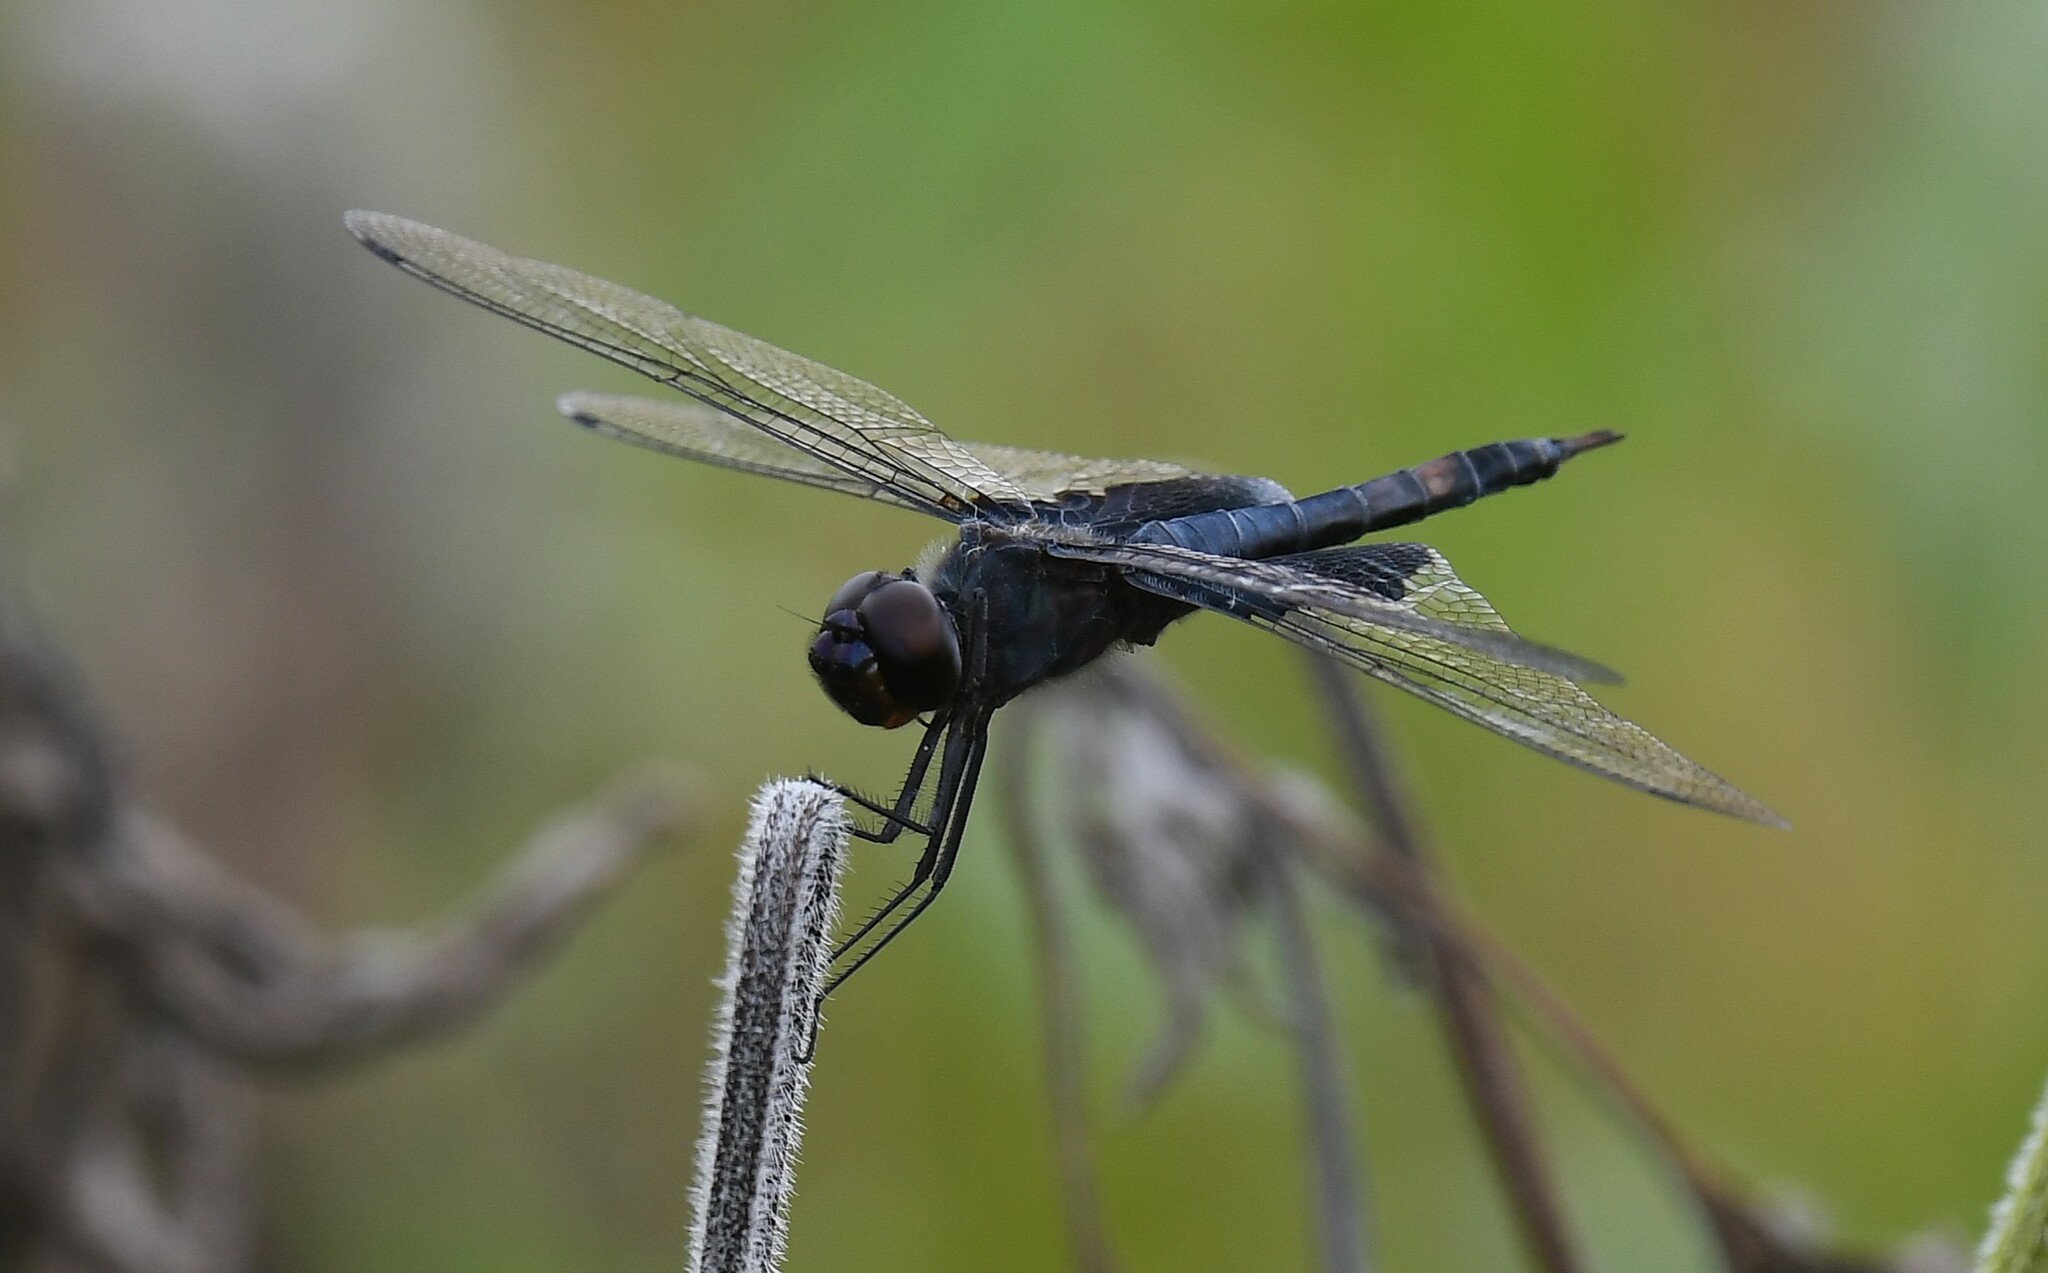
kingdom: Animalia
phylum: Arthropoda
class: Insecta
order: Odonata
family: Libellulidae
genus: Tramea
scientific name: Tramea lacerata
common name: Black saddlebags
